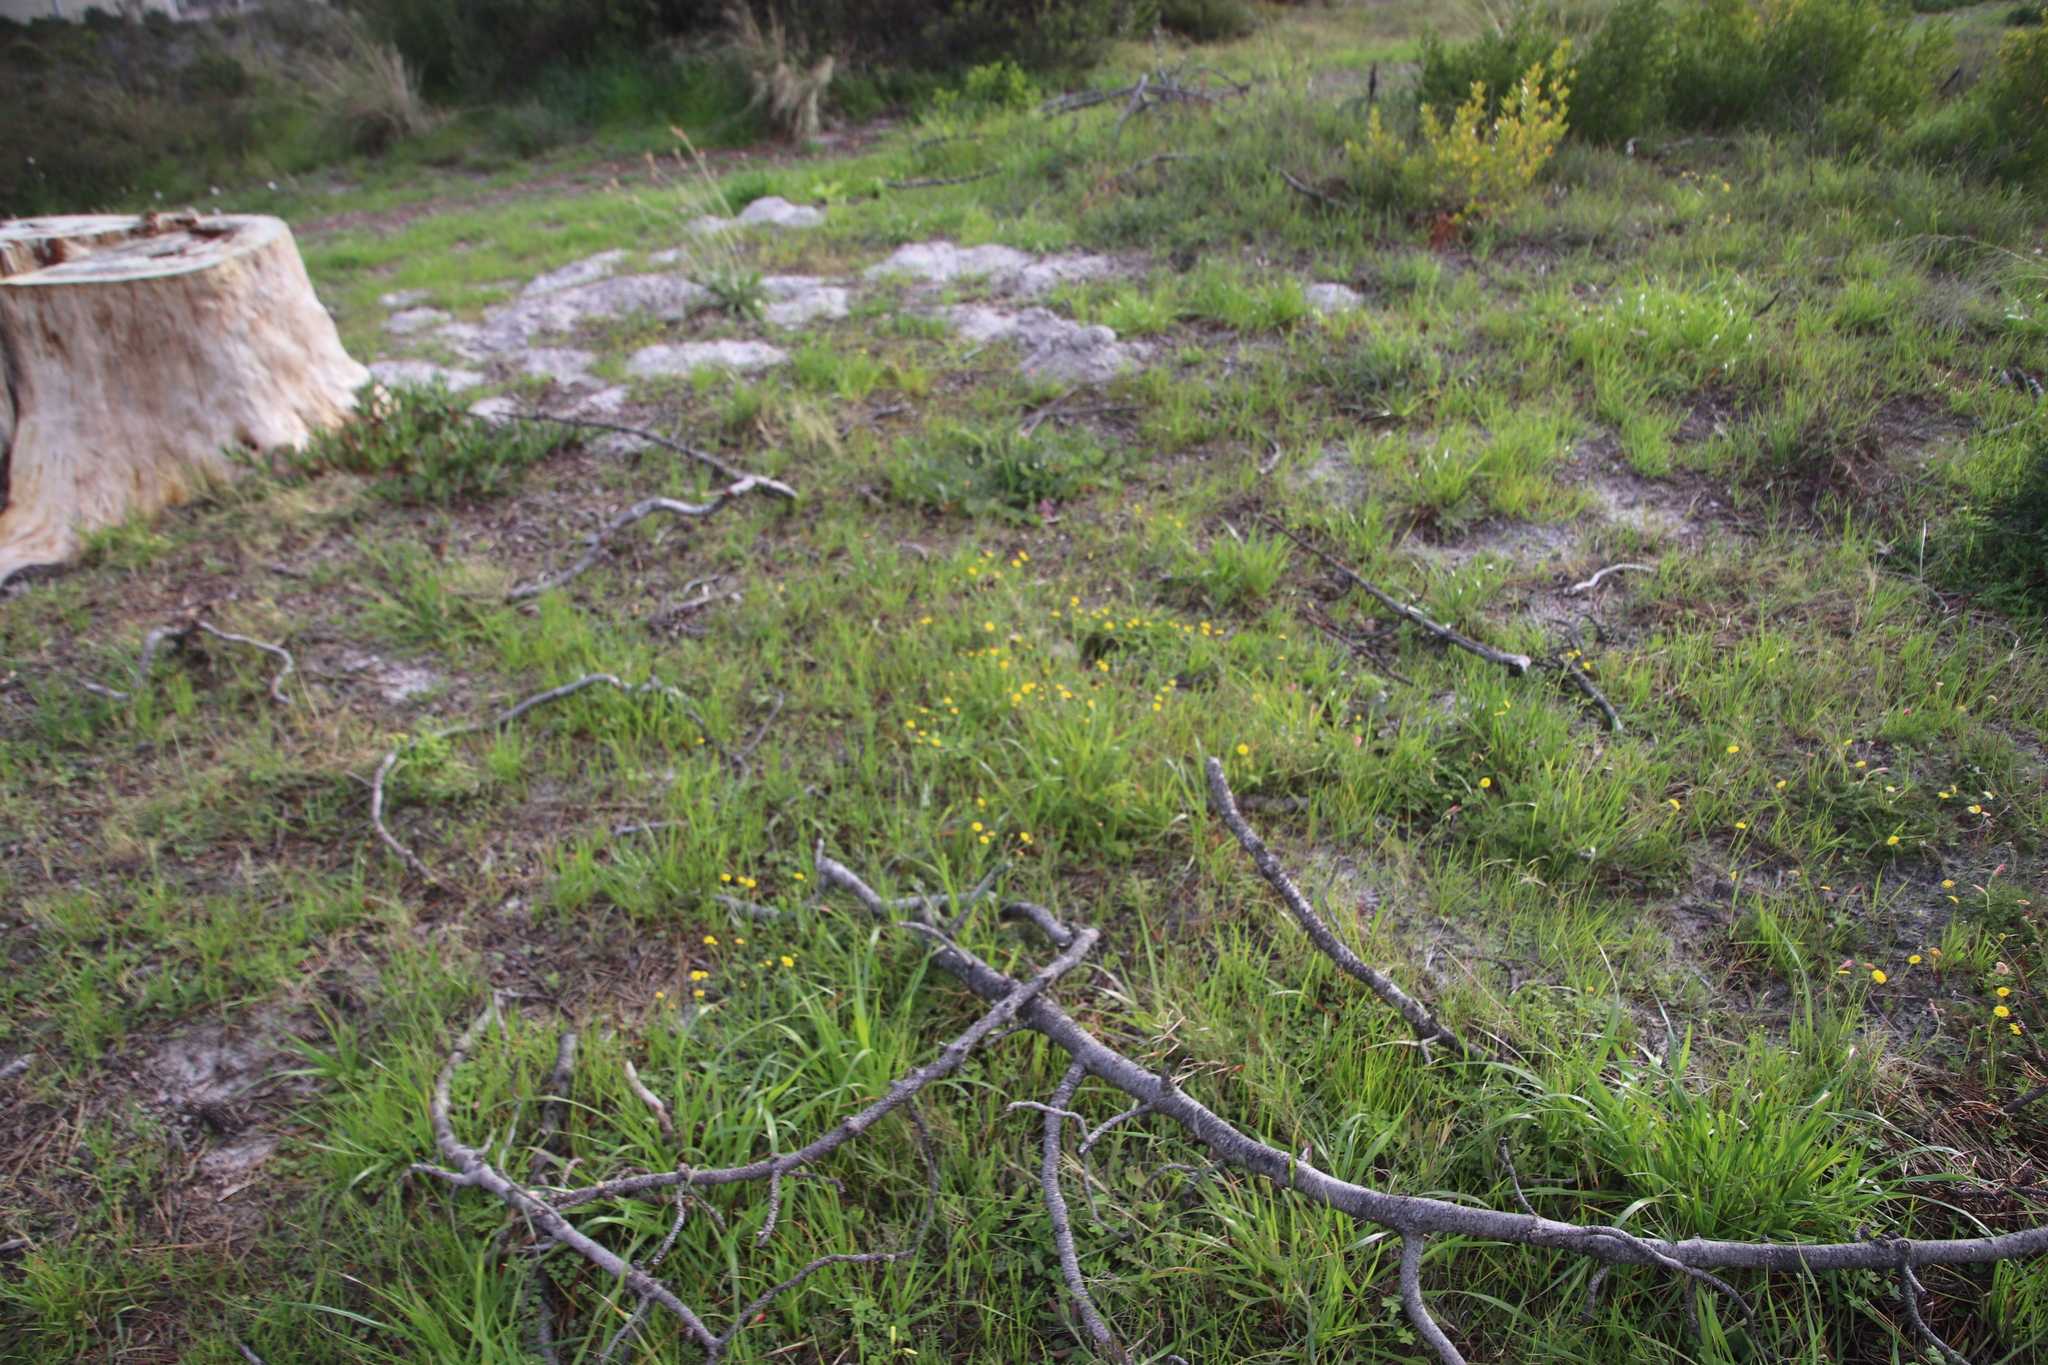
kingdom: Plantae
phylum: Tracheophyta
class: Magnoliopsida
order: Asterales
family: Asteraceae
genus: Senecio
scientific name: Senecio littoreus
